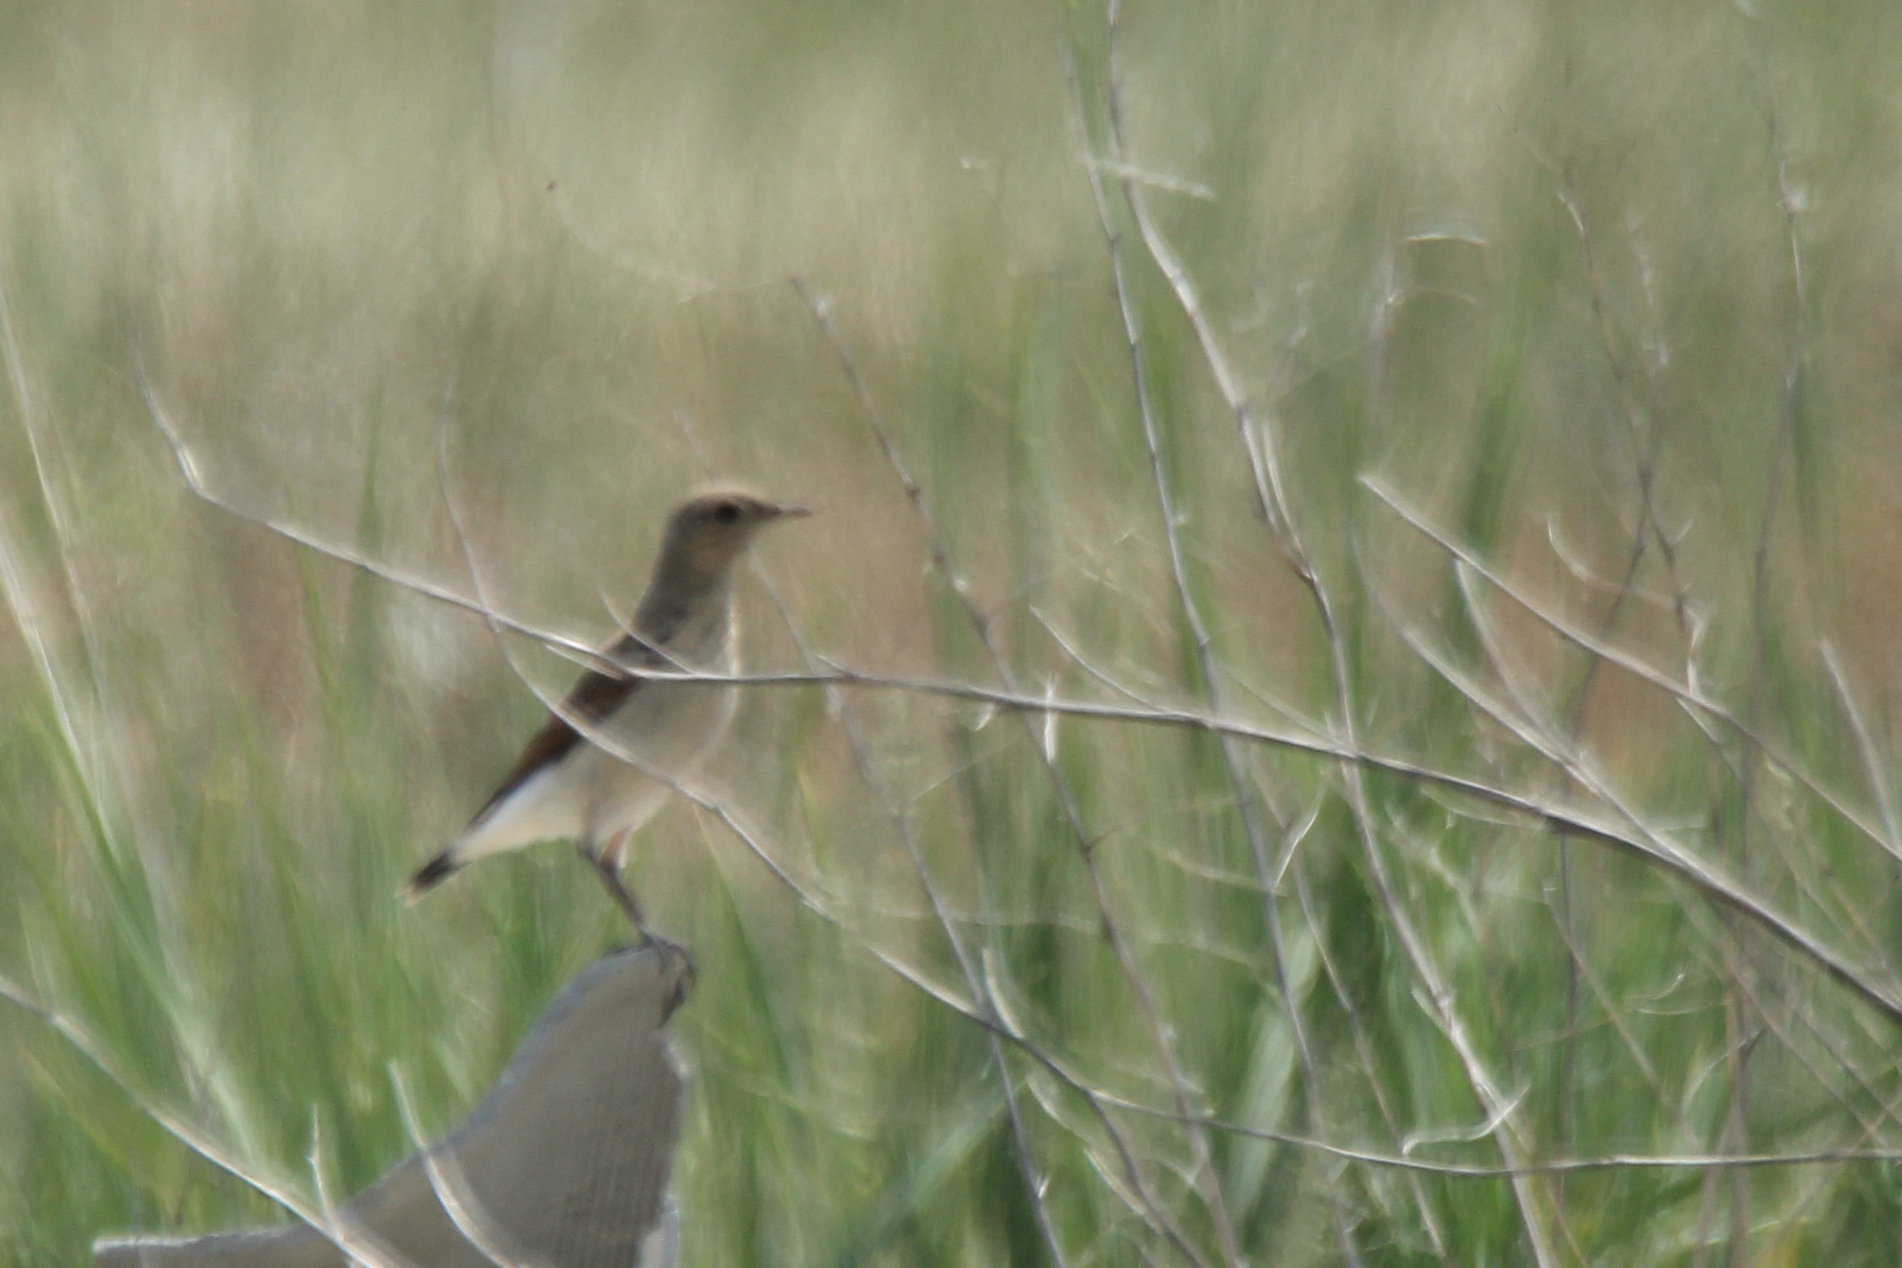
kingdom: Animalia
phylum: Chordata
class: Aves
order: Passeriformes
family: Muscicapidae
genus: Oenanthe
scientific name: Oenanthe oenanthe
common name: Northern wheatear
